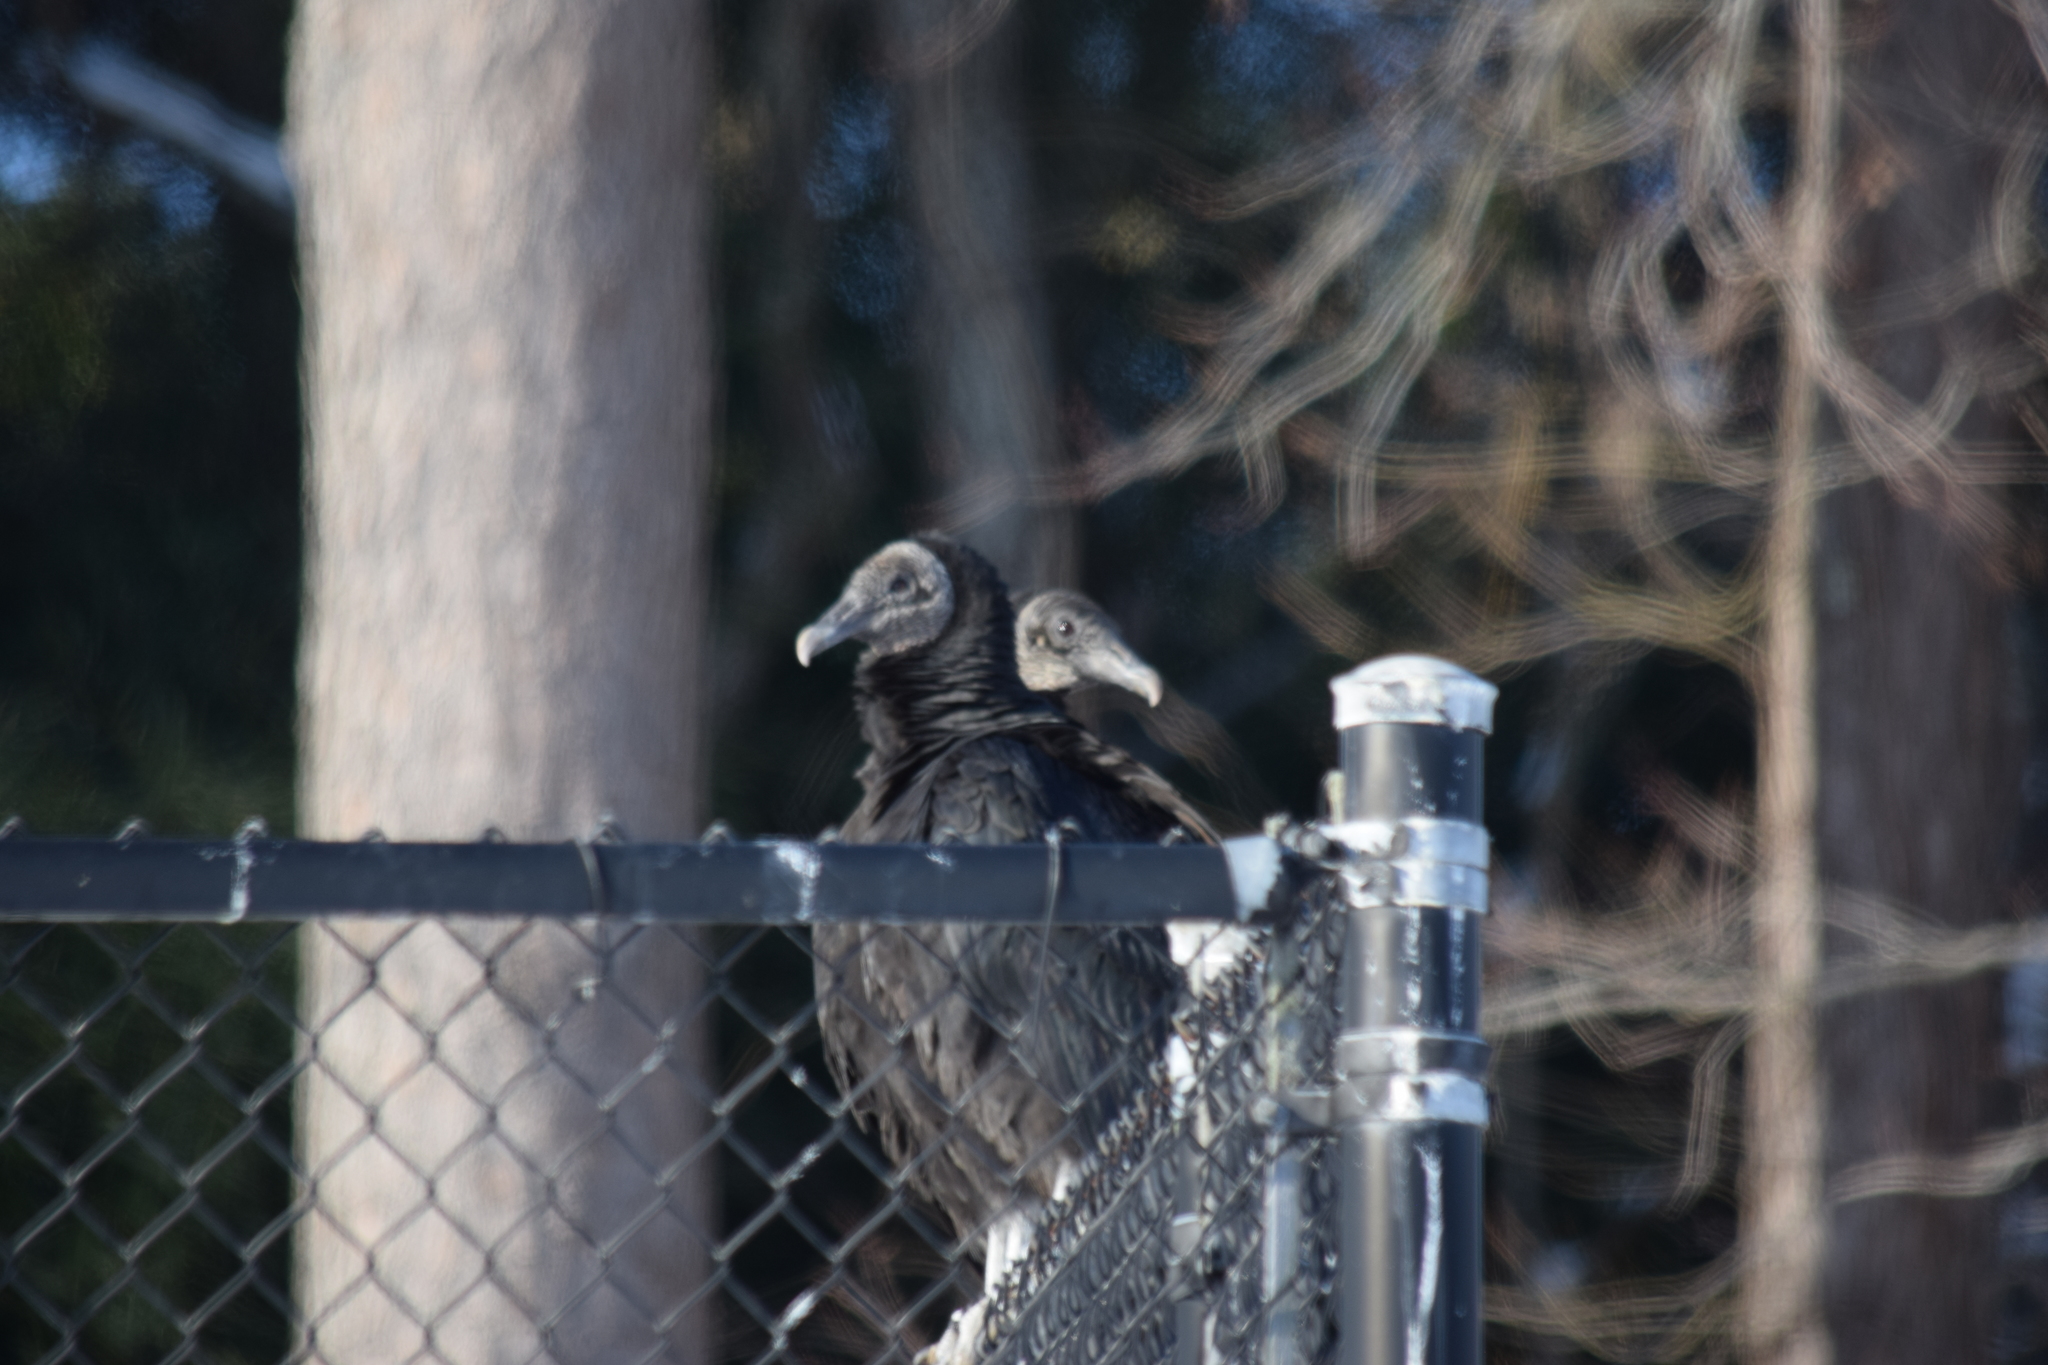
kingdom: Animalia
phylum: Chordata
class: Aves
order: Accipitriformes
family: Cathartidae
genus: Coragyps
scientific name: Coragyps atratus
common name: Black vulture
